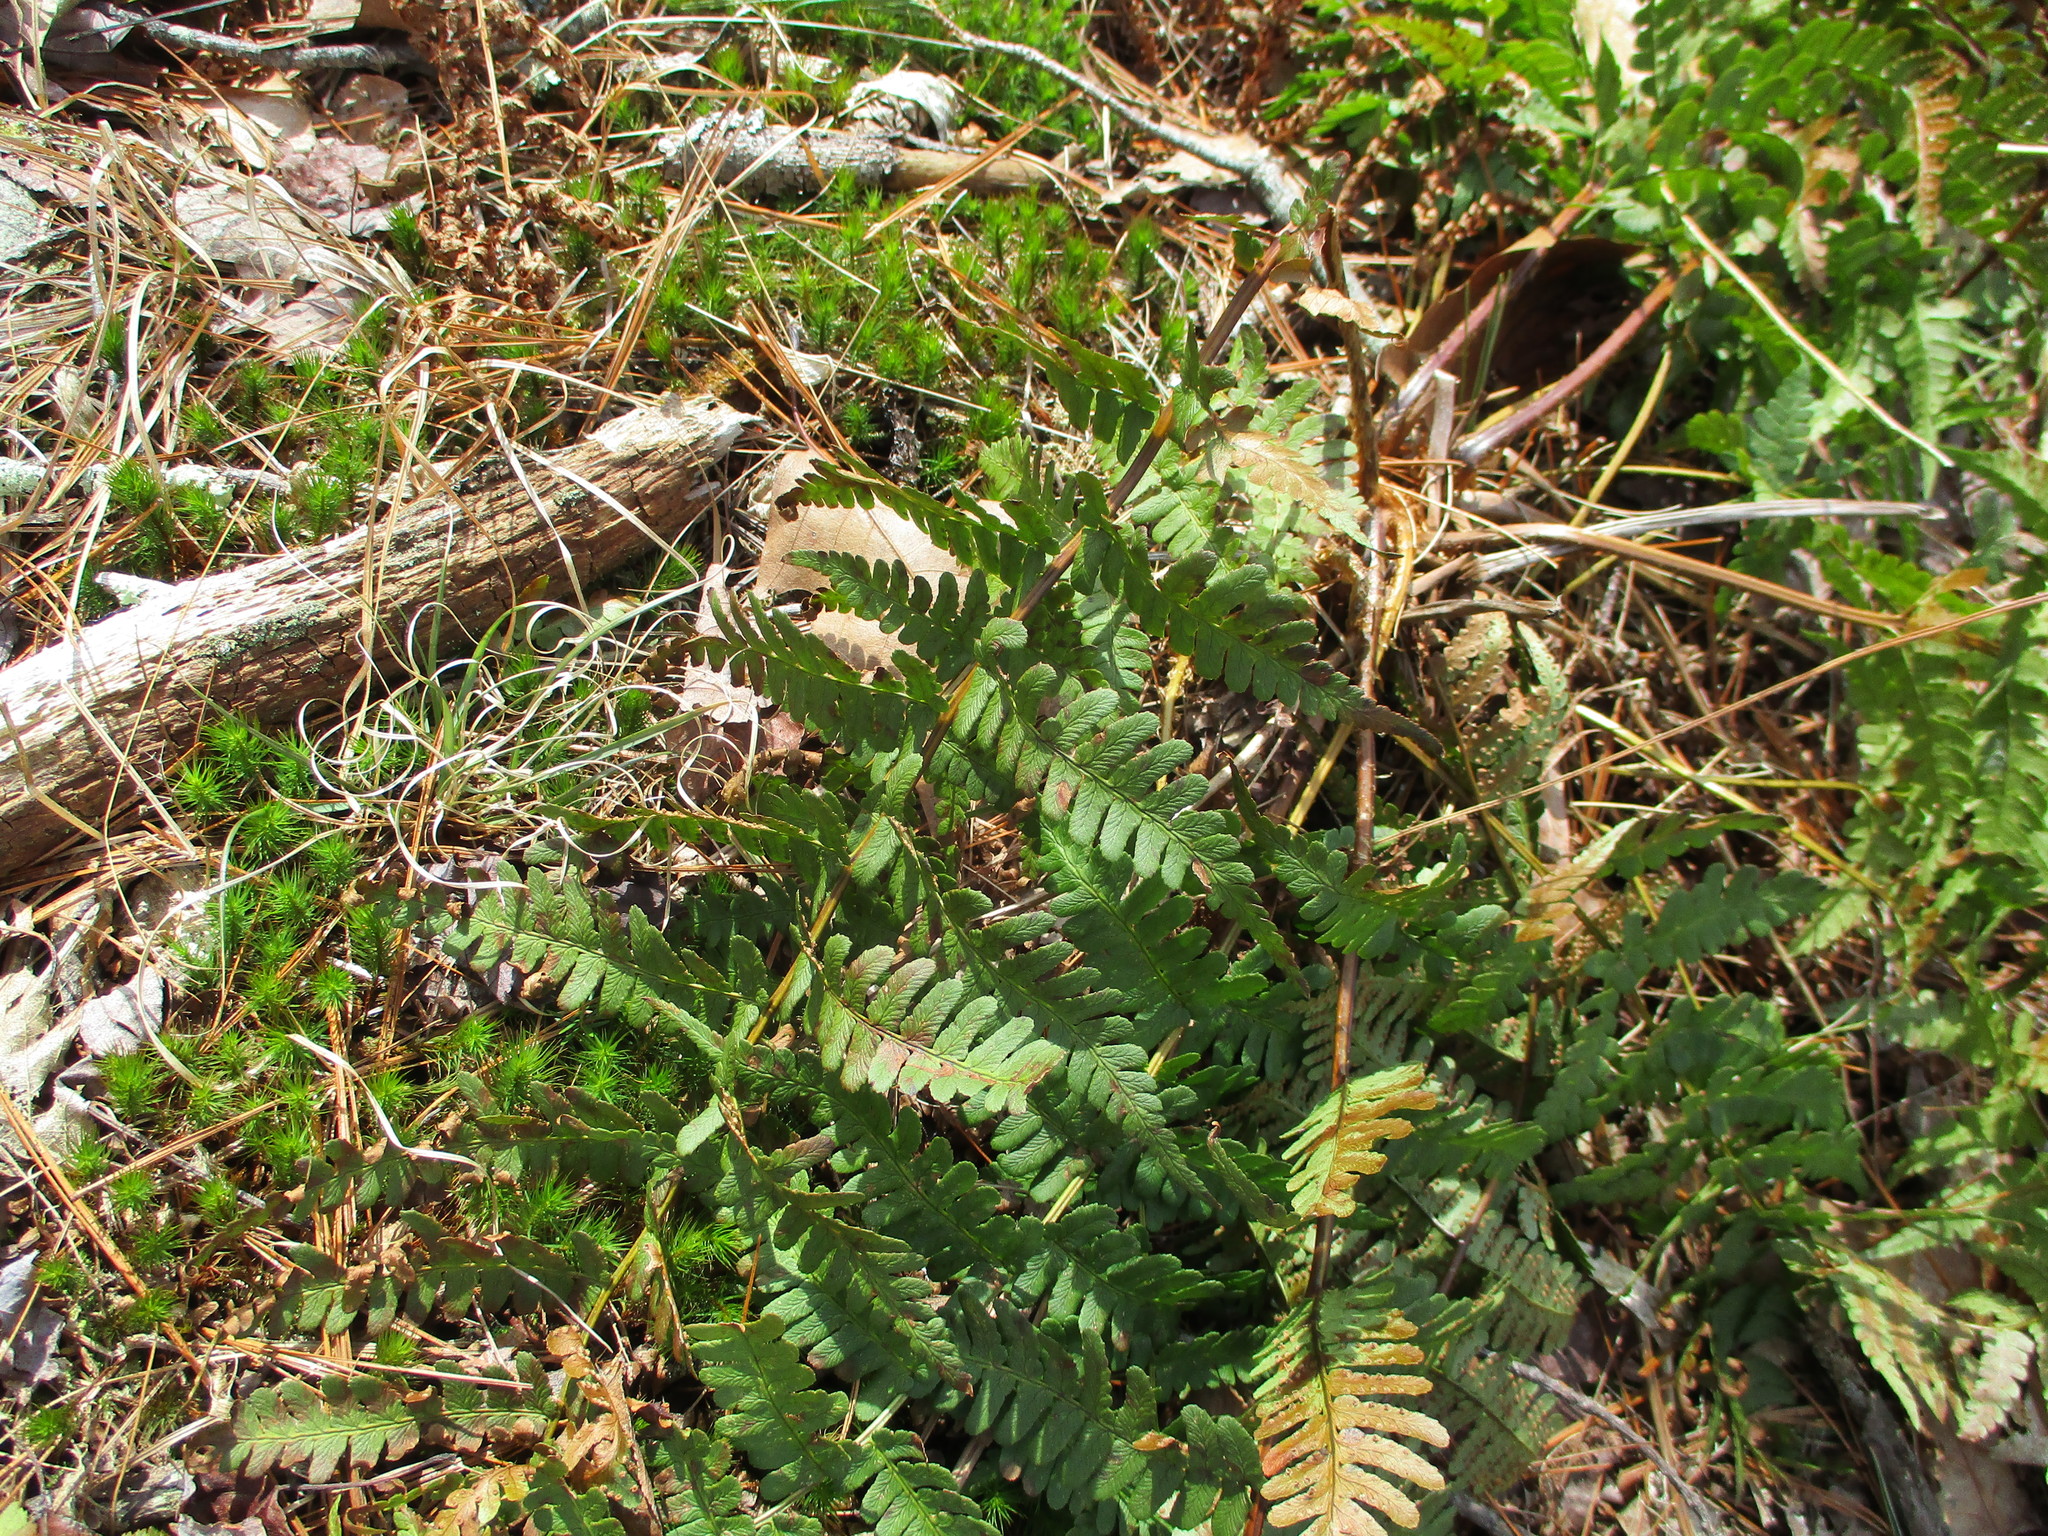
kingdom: Plantae
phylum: Tracheophyta
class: Polypodiopsida
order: Polypodiales
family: Dryopteridaceae
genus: Dryopteris
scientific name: Dryopteris marginalis
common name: Marginal wood fern
